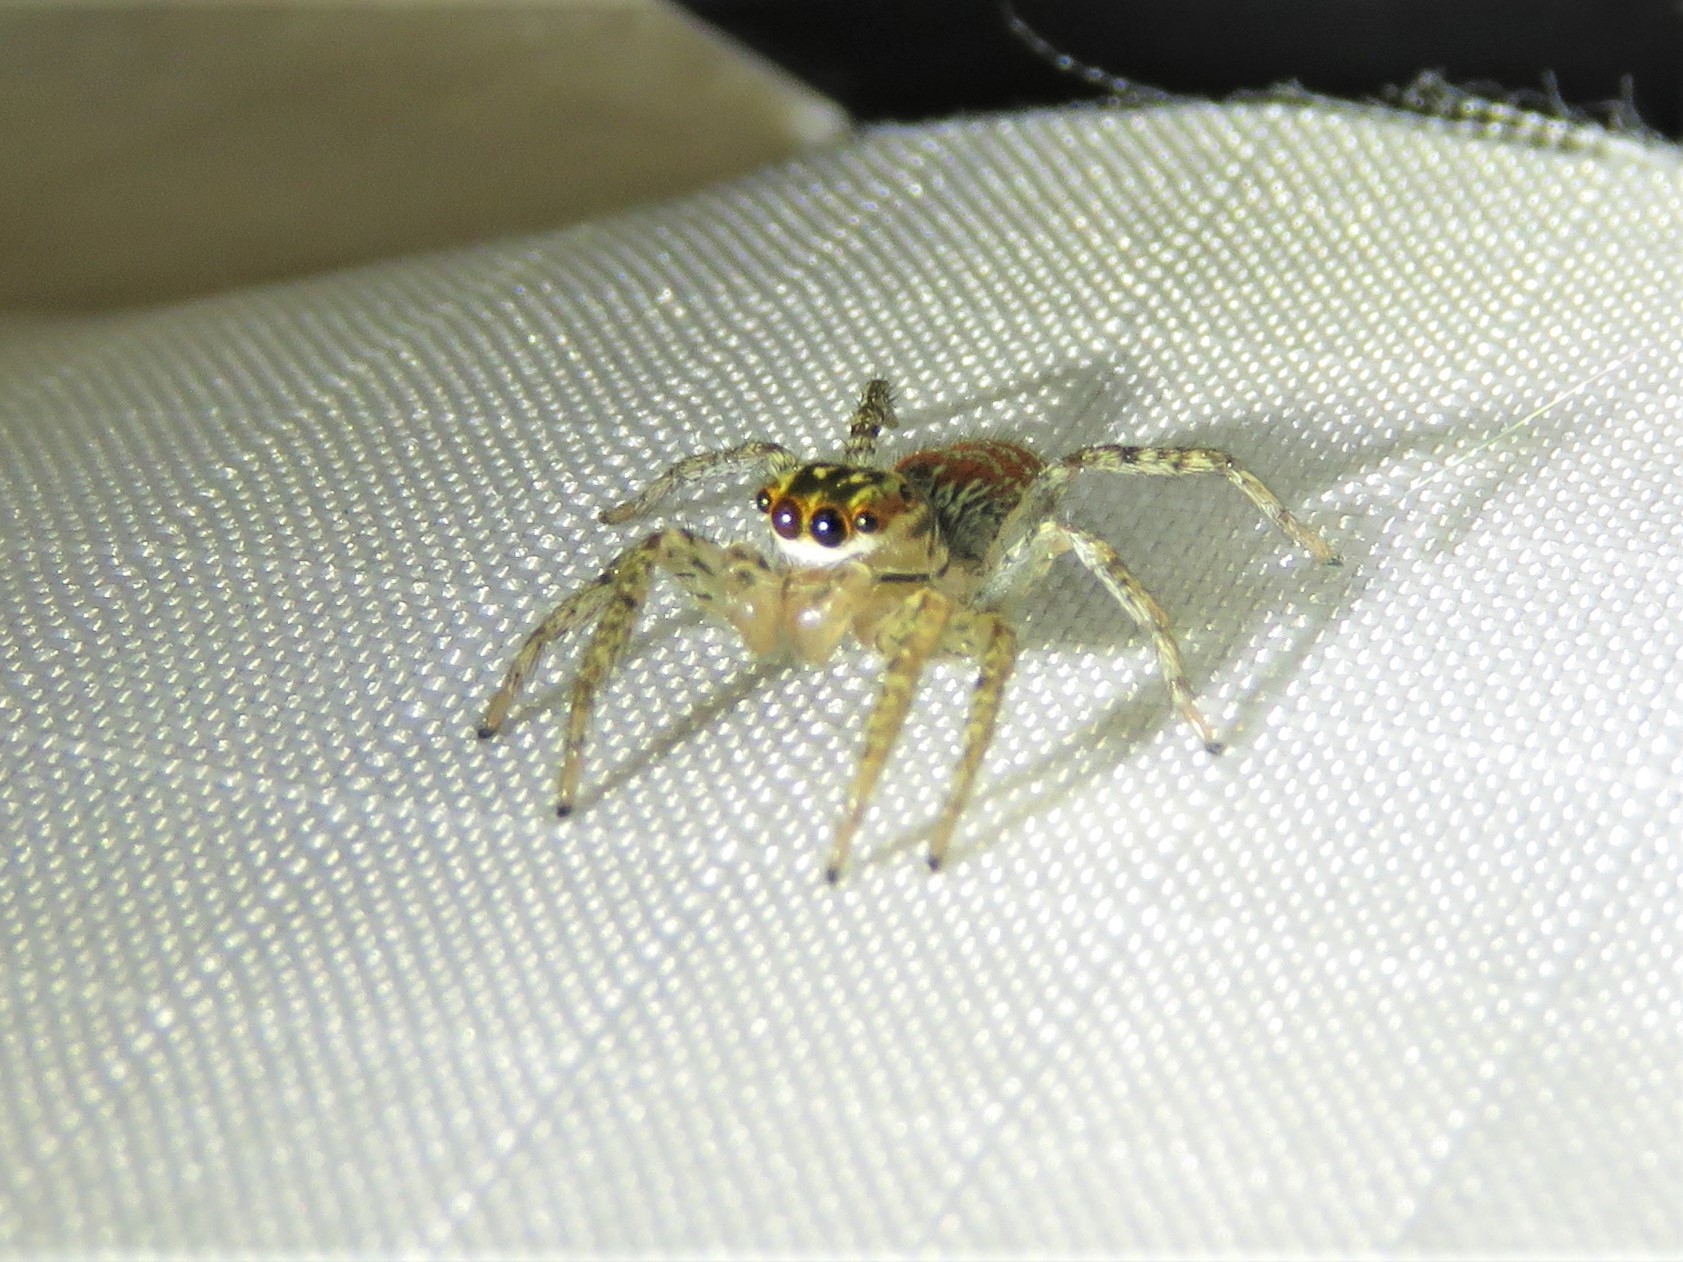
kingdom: Animalia
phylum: Arthropoda
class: Arachnida
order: Araneae
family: Salticidae
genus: Maevia
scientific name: Maevia inclemens
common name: Dimorphic jumper
